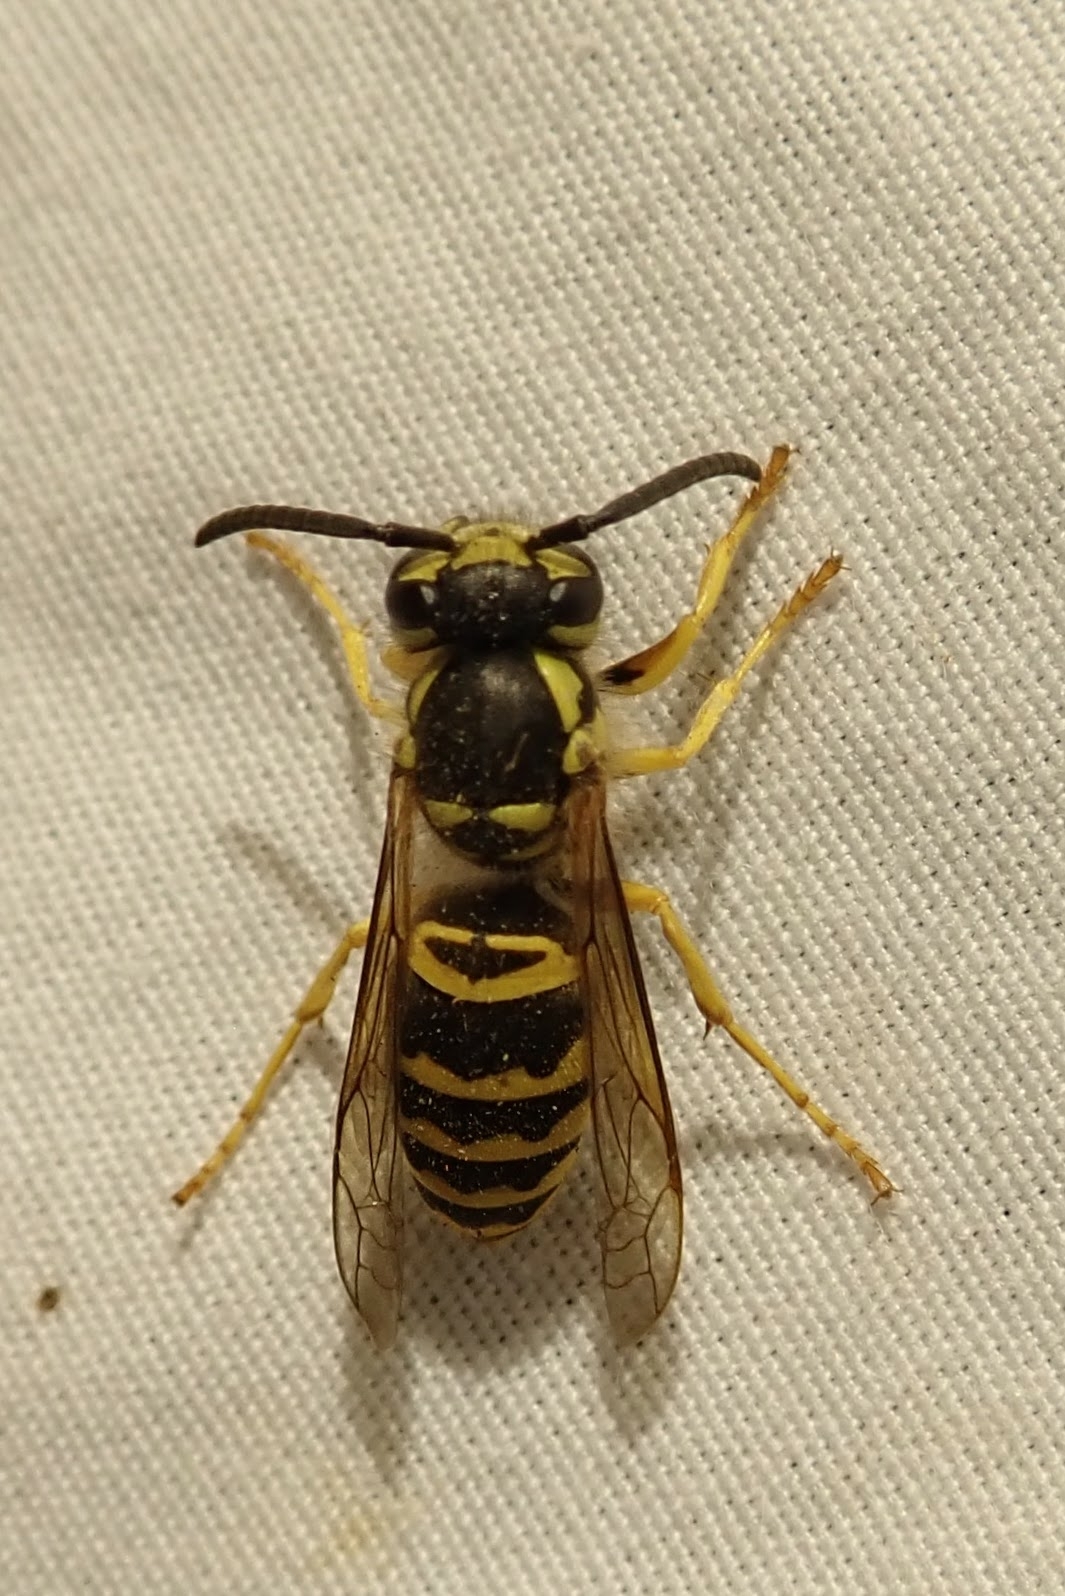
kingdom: Animalia
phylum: Arthropoda
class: Insecta
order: Hymenoptera
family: Vespidae
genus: Vespula
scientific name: Vespula maculifrons
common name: Eastern yellowjacket
